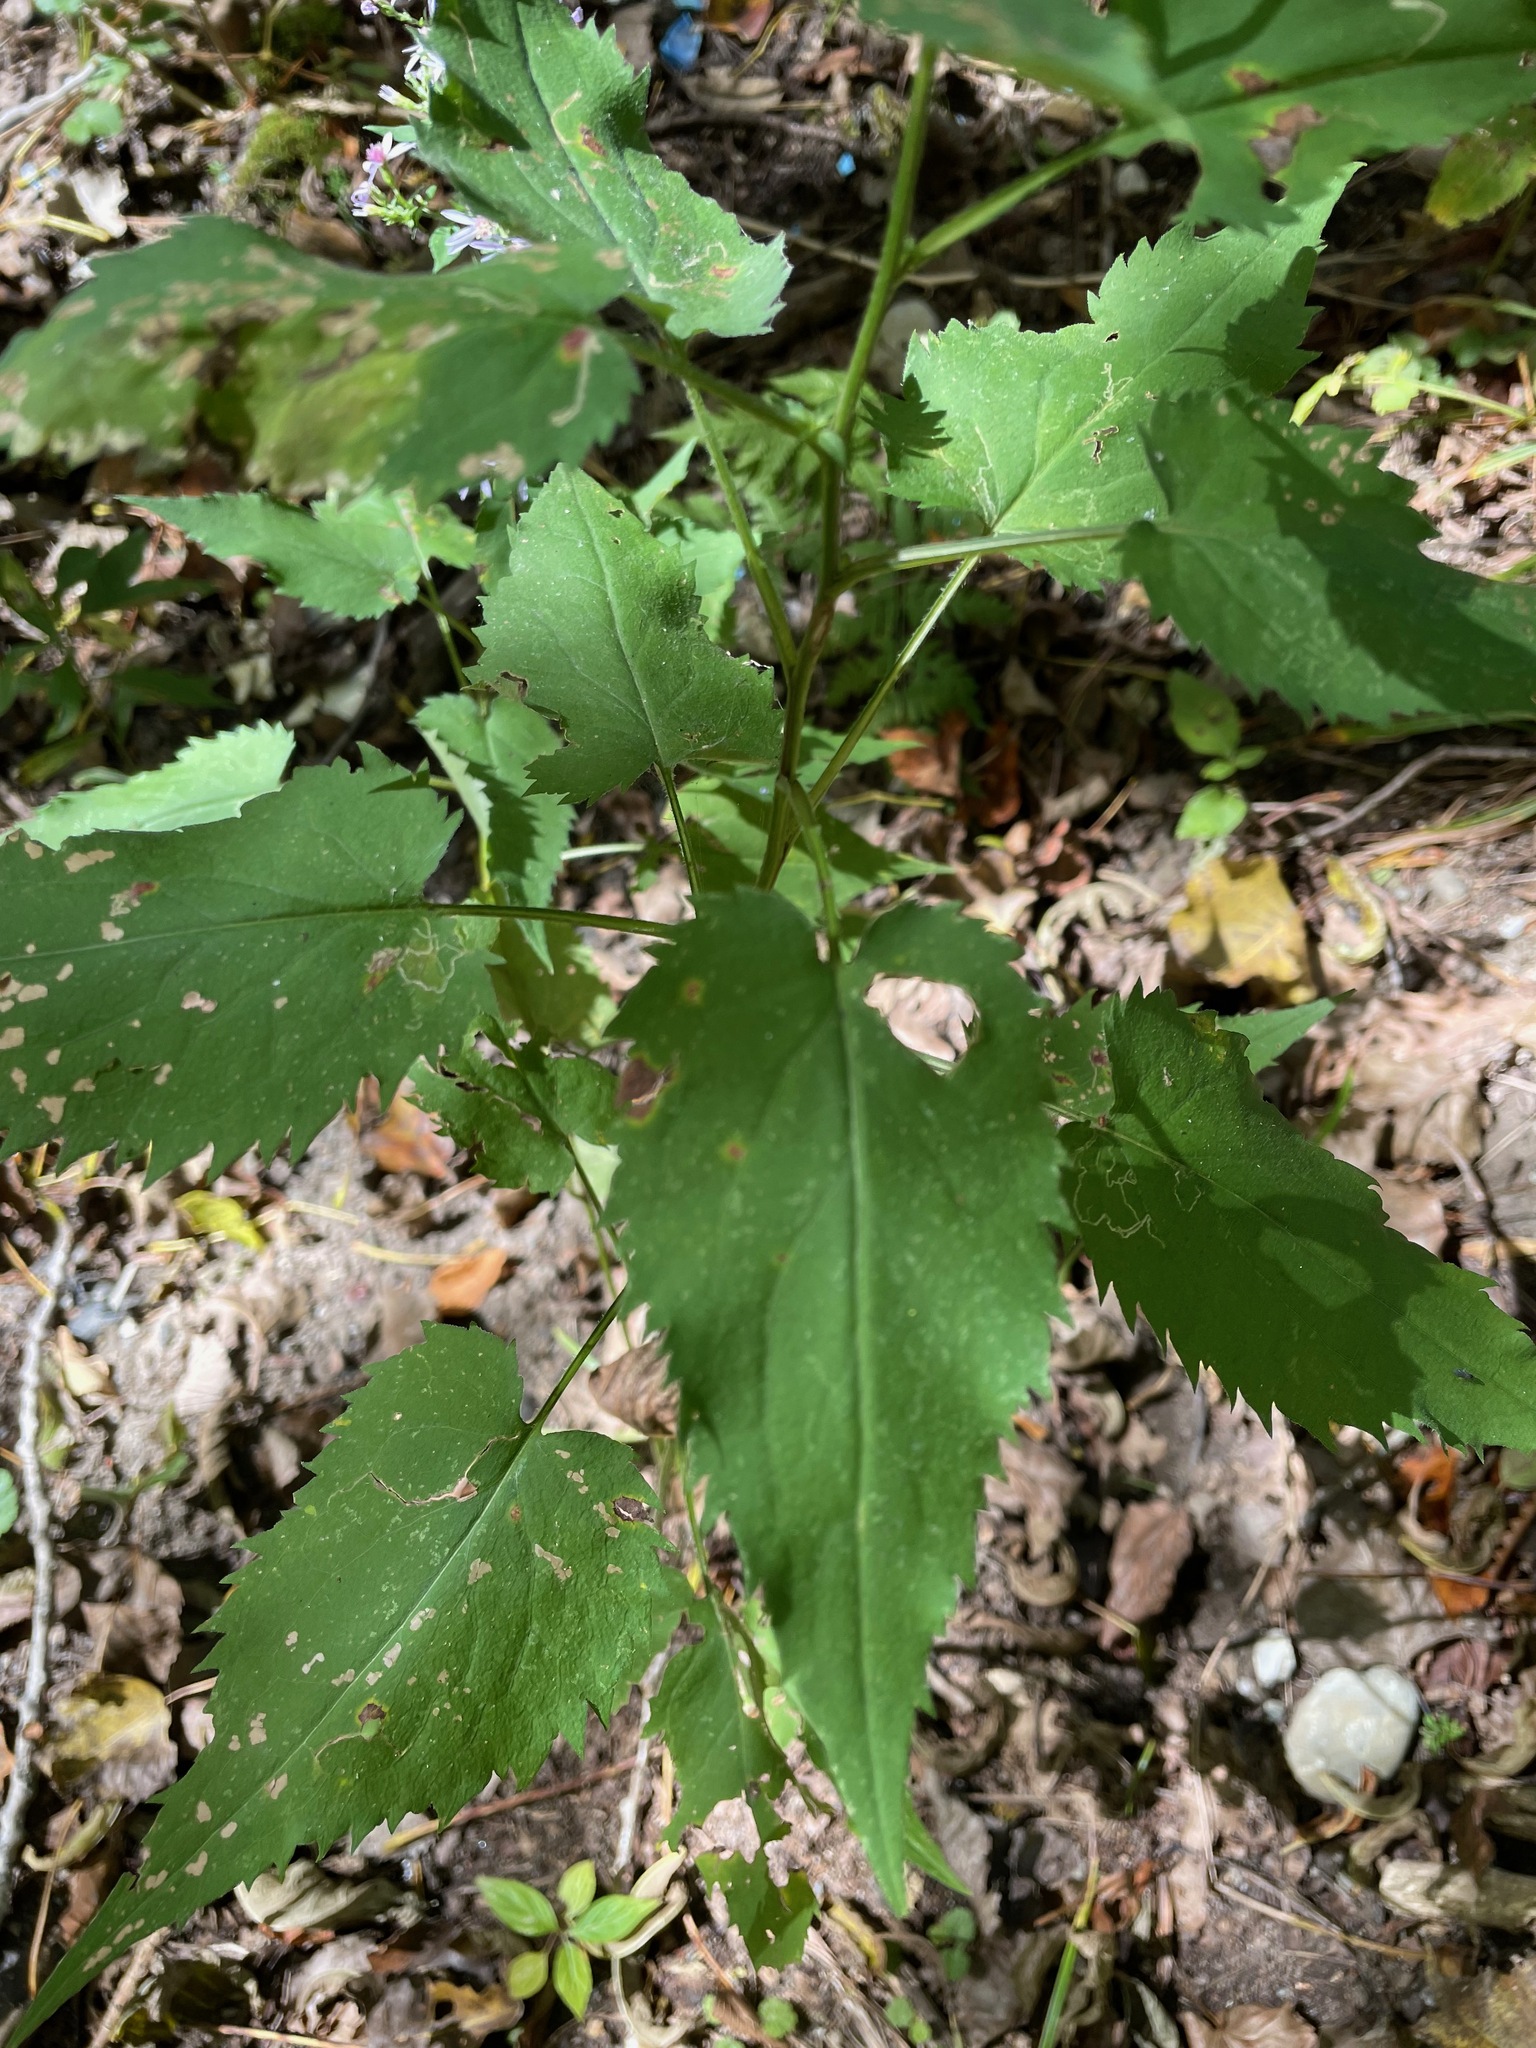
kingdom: Plantae
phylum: Tracheophyta
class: Magnoliopsida
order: Asterales
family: Asteraceae
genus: Symphyotrichum
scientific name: Symphyotrichum cordifolium
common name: Beeweed
